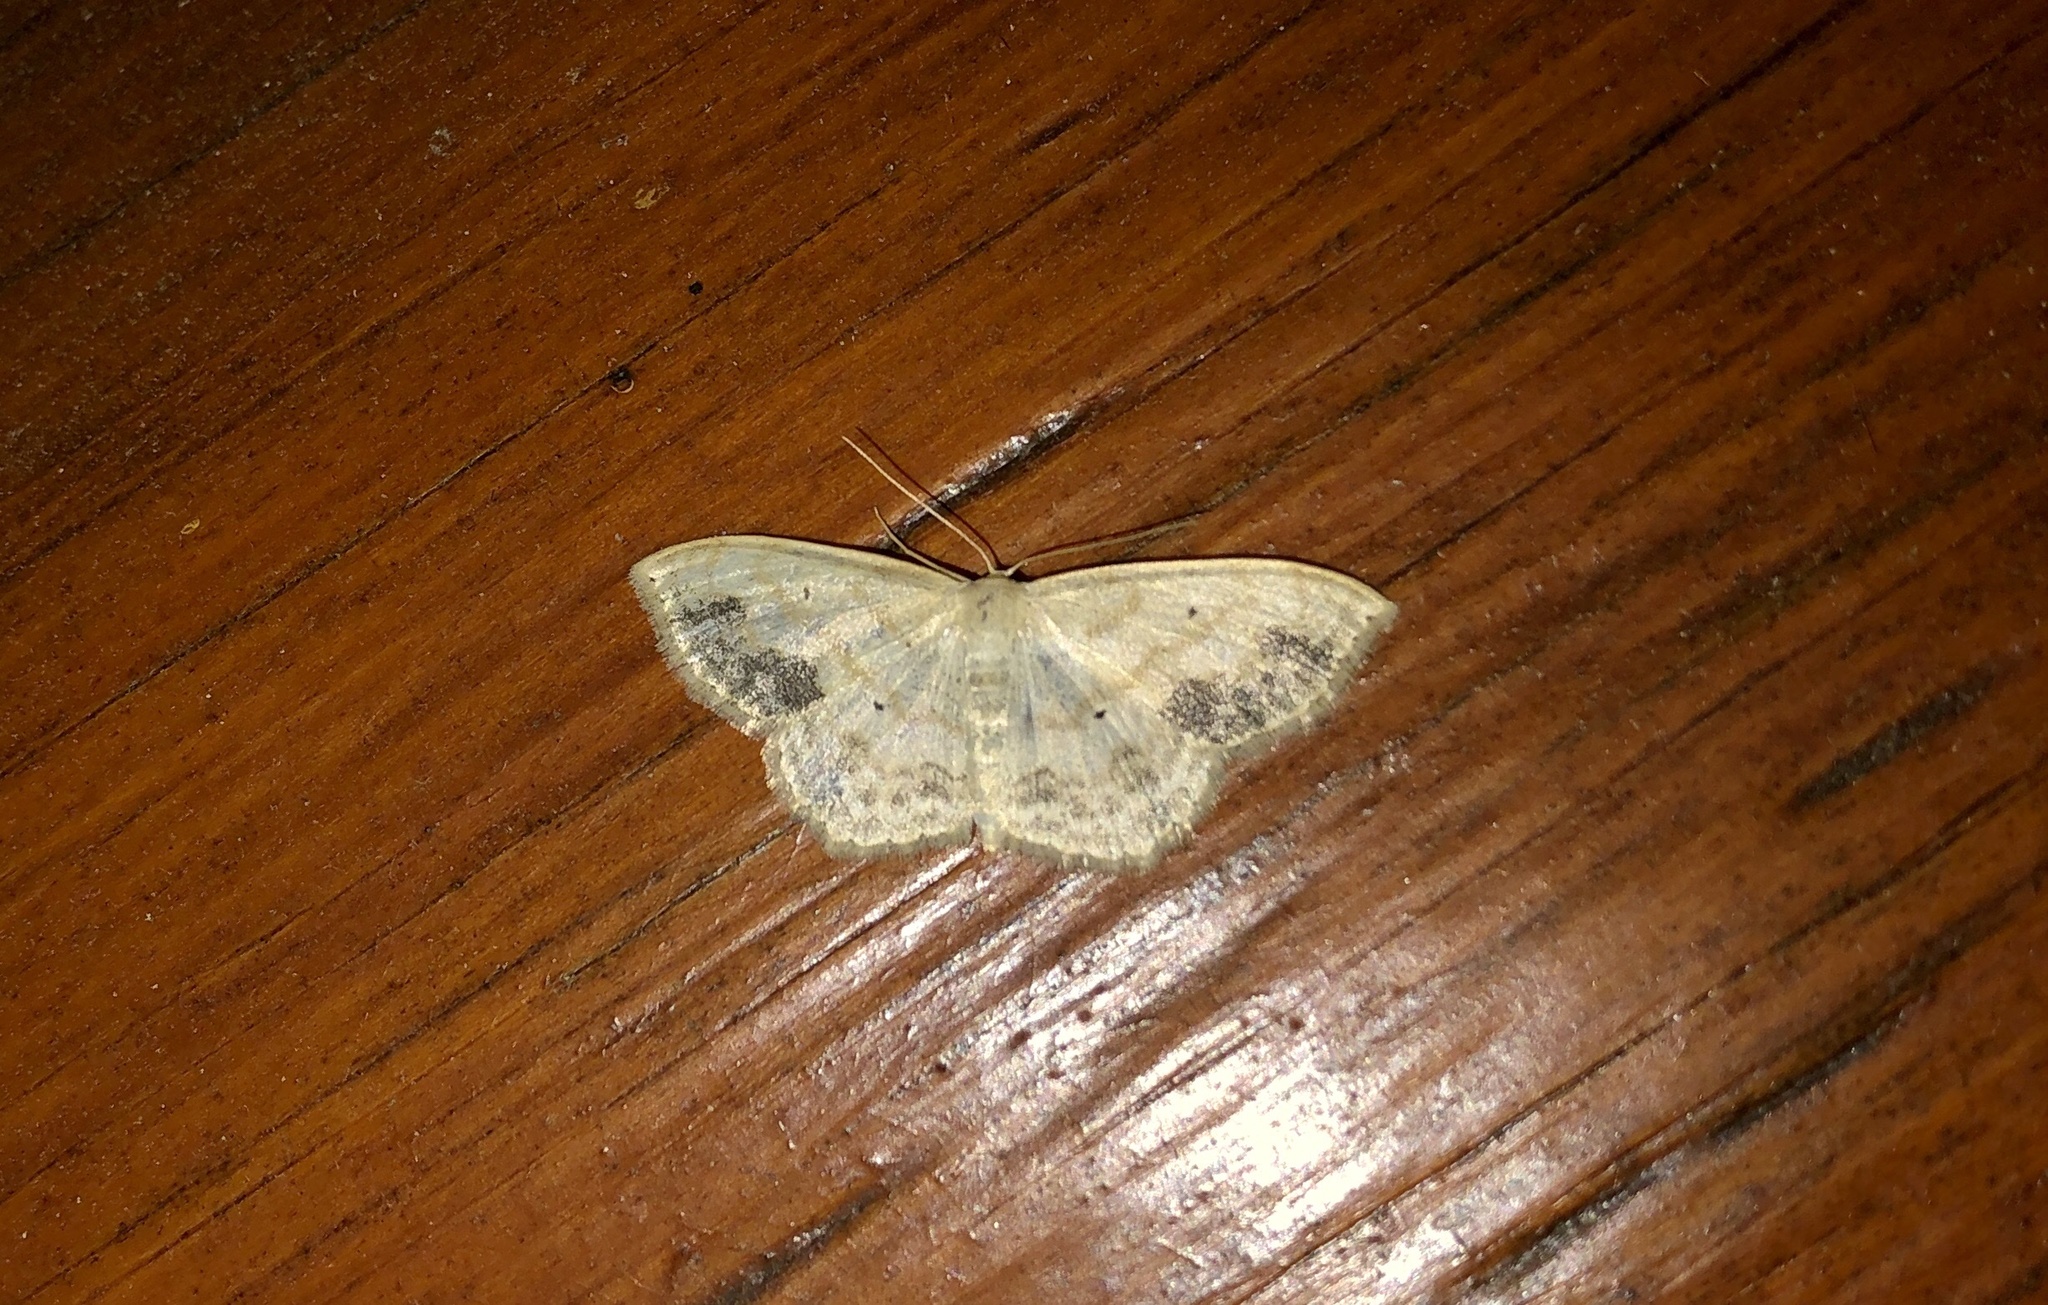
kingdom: Animalia
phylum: Arthropoda
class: Insecta
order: Lepidoptera
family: Geometridae
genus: Scopula
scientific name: Scopula limboundata
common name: Large lace border
